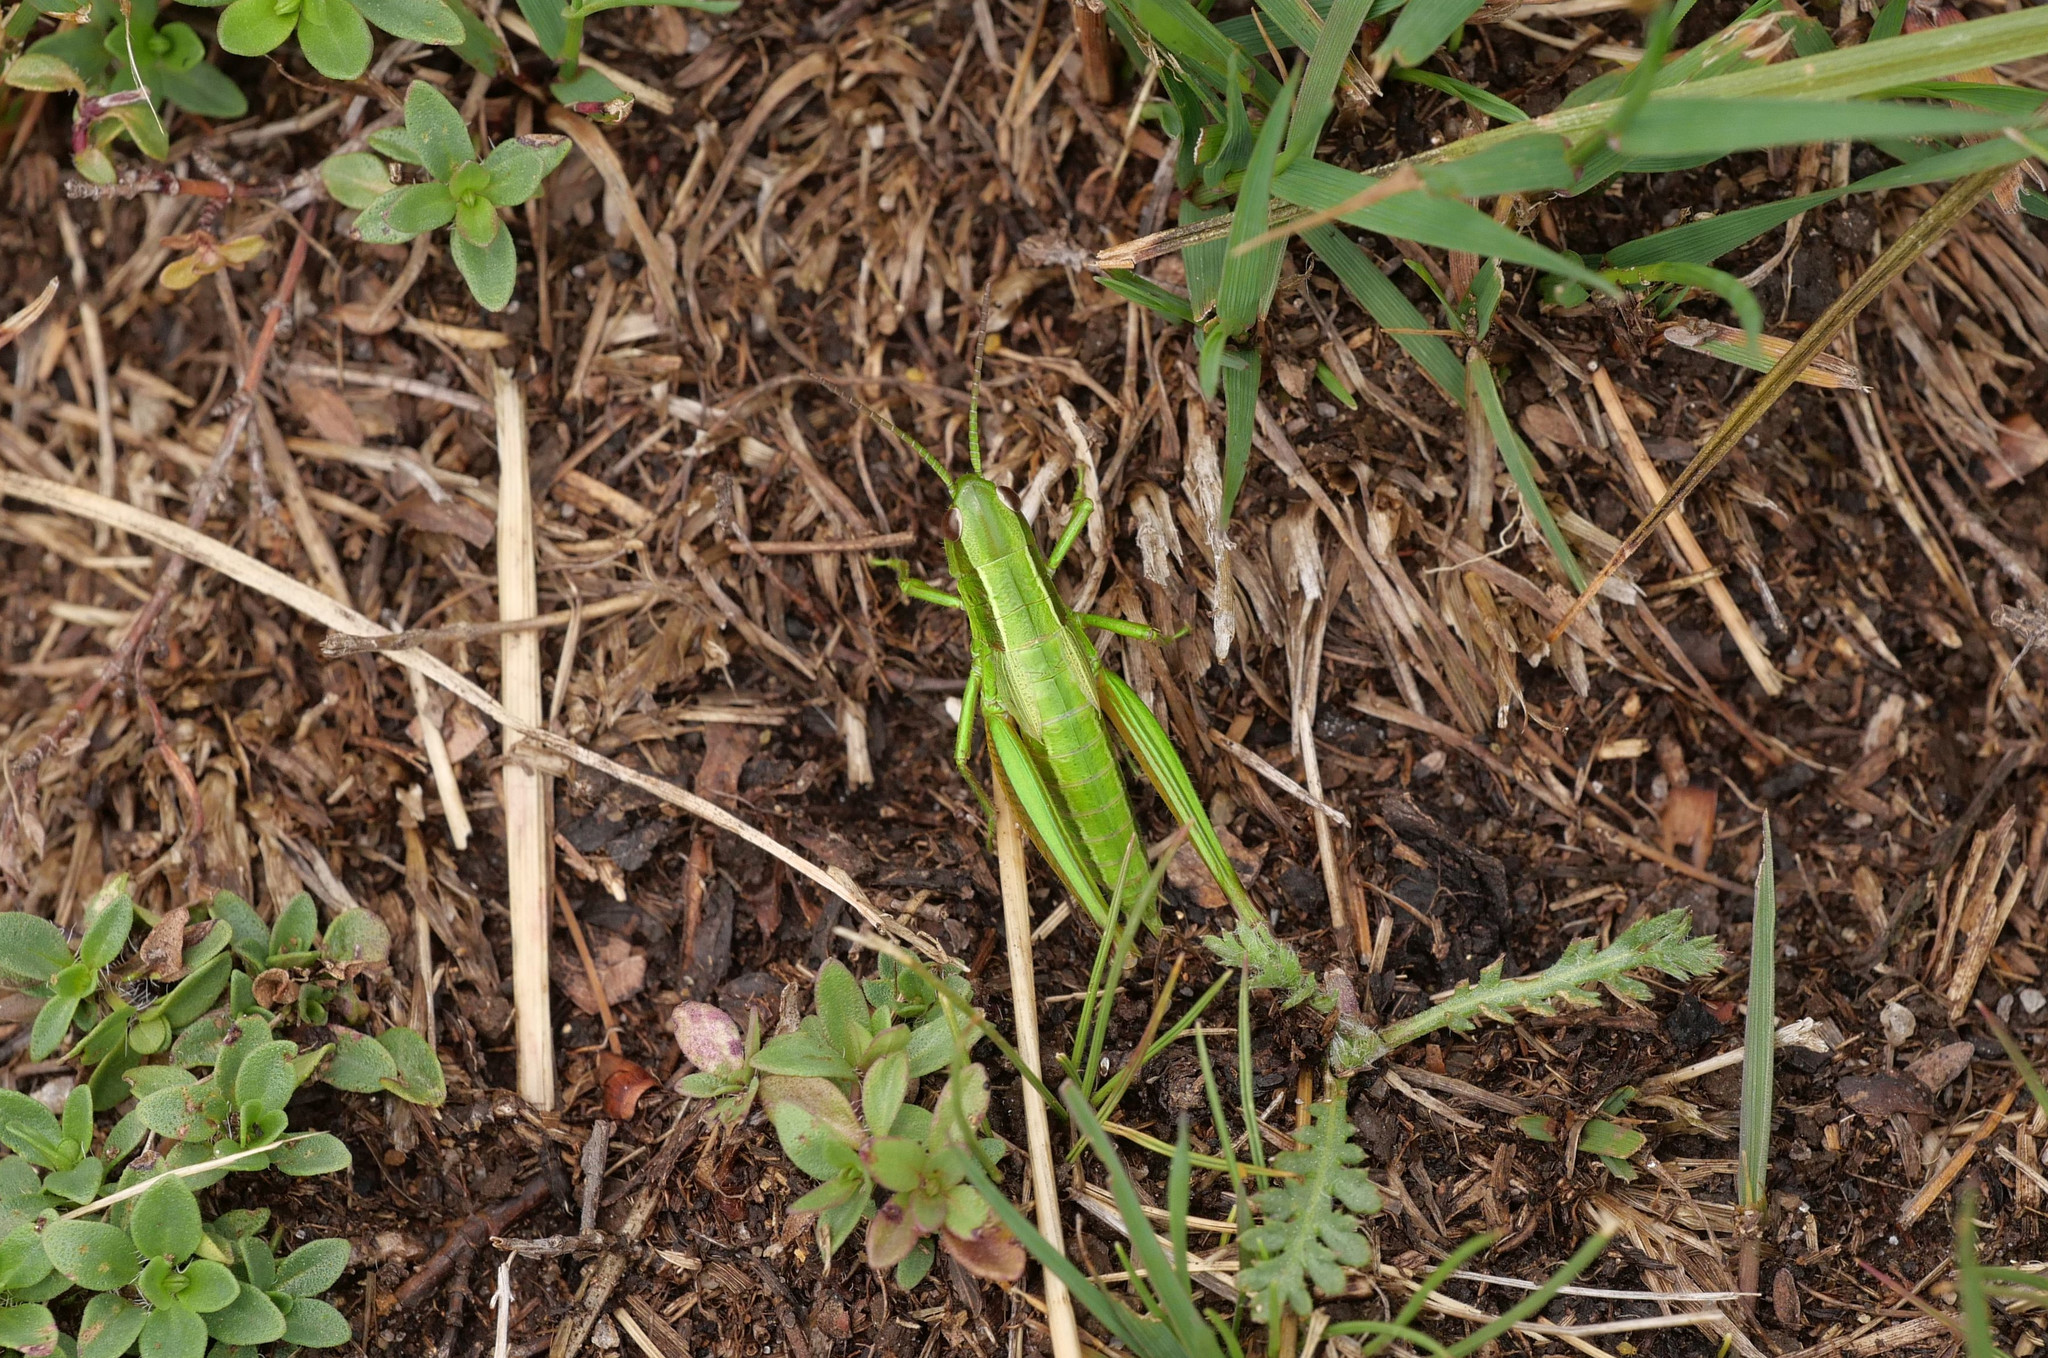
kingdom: Animalia
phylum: Arthropoda
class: Insecta
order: Orthoptera
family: Acrididae
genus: Euthystira
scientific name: Euthystira brachyptera
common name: Small gold grasshopper
